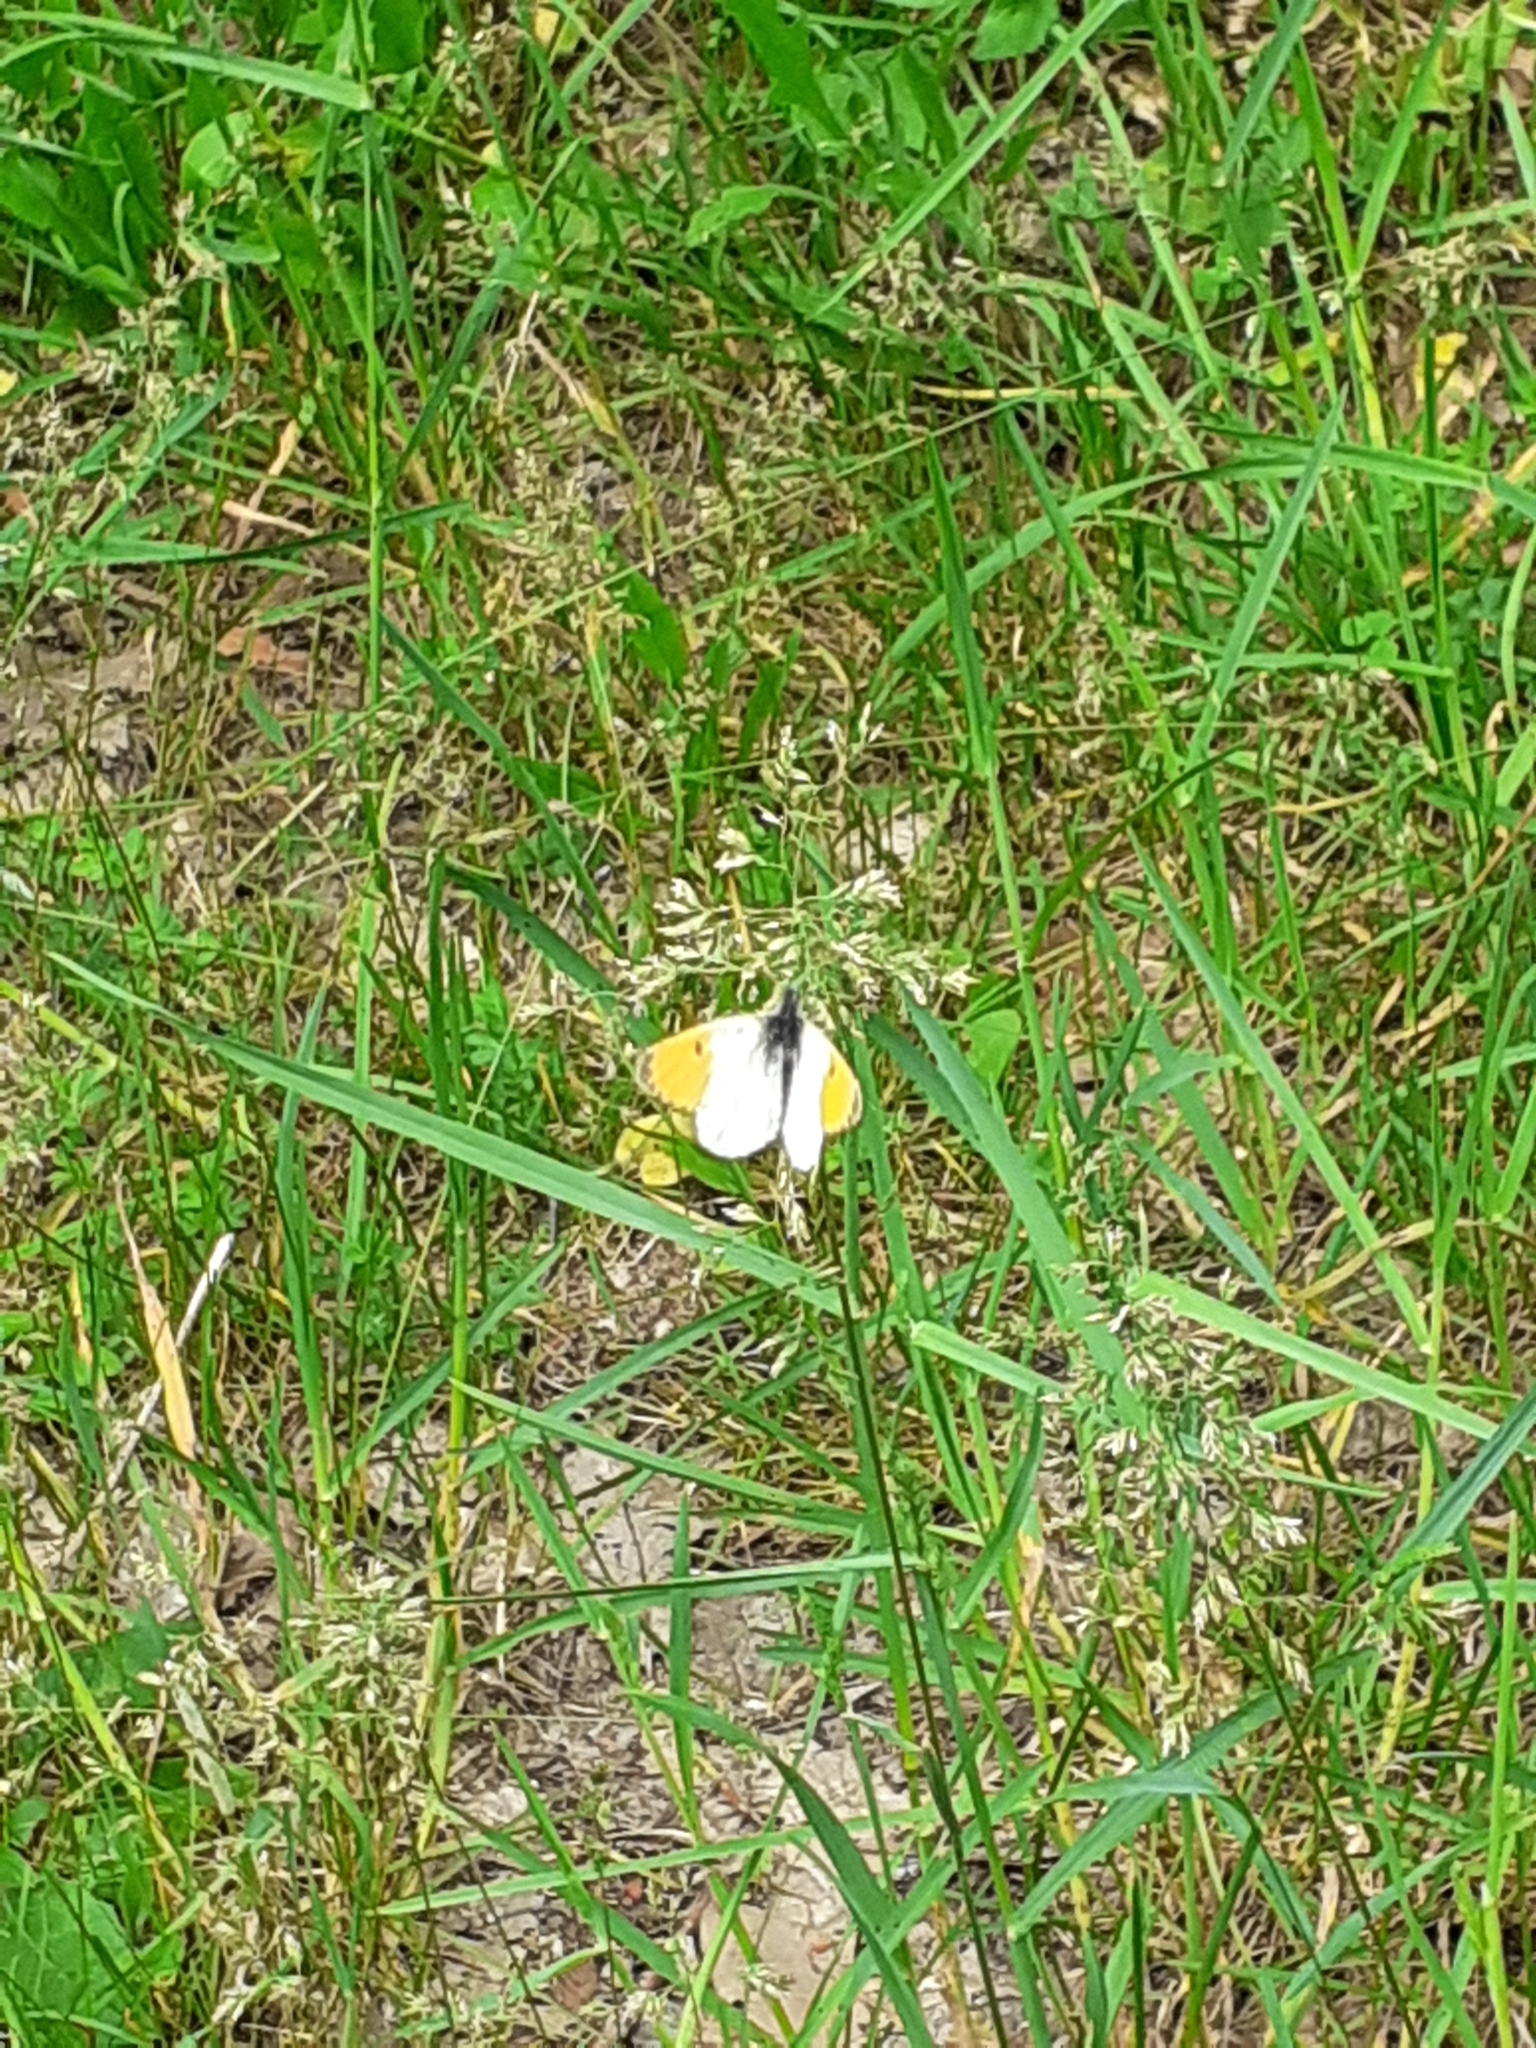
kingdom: Animalia
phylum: Arthropoda
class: Insecta
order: Lepidoptera
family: Pieridae
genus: Anthocharis
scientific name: Anthocharis cardamines
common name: Orange-tip
